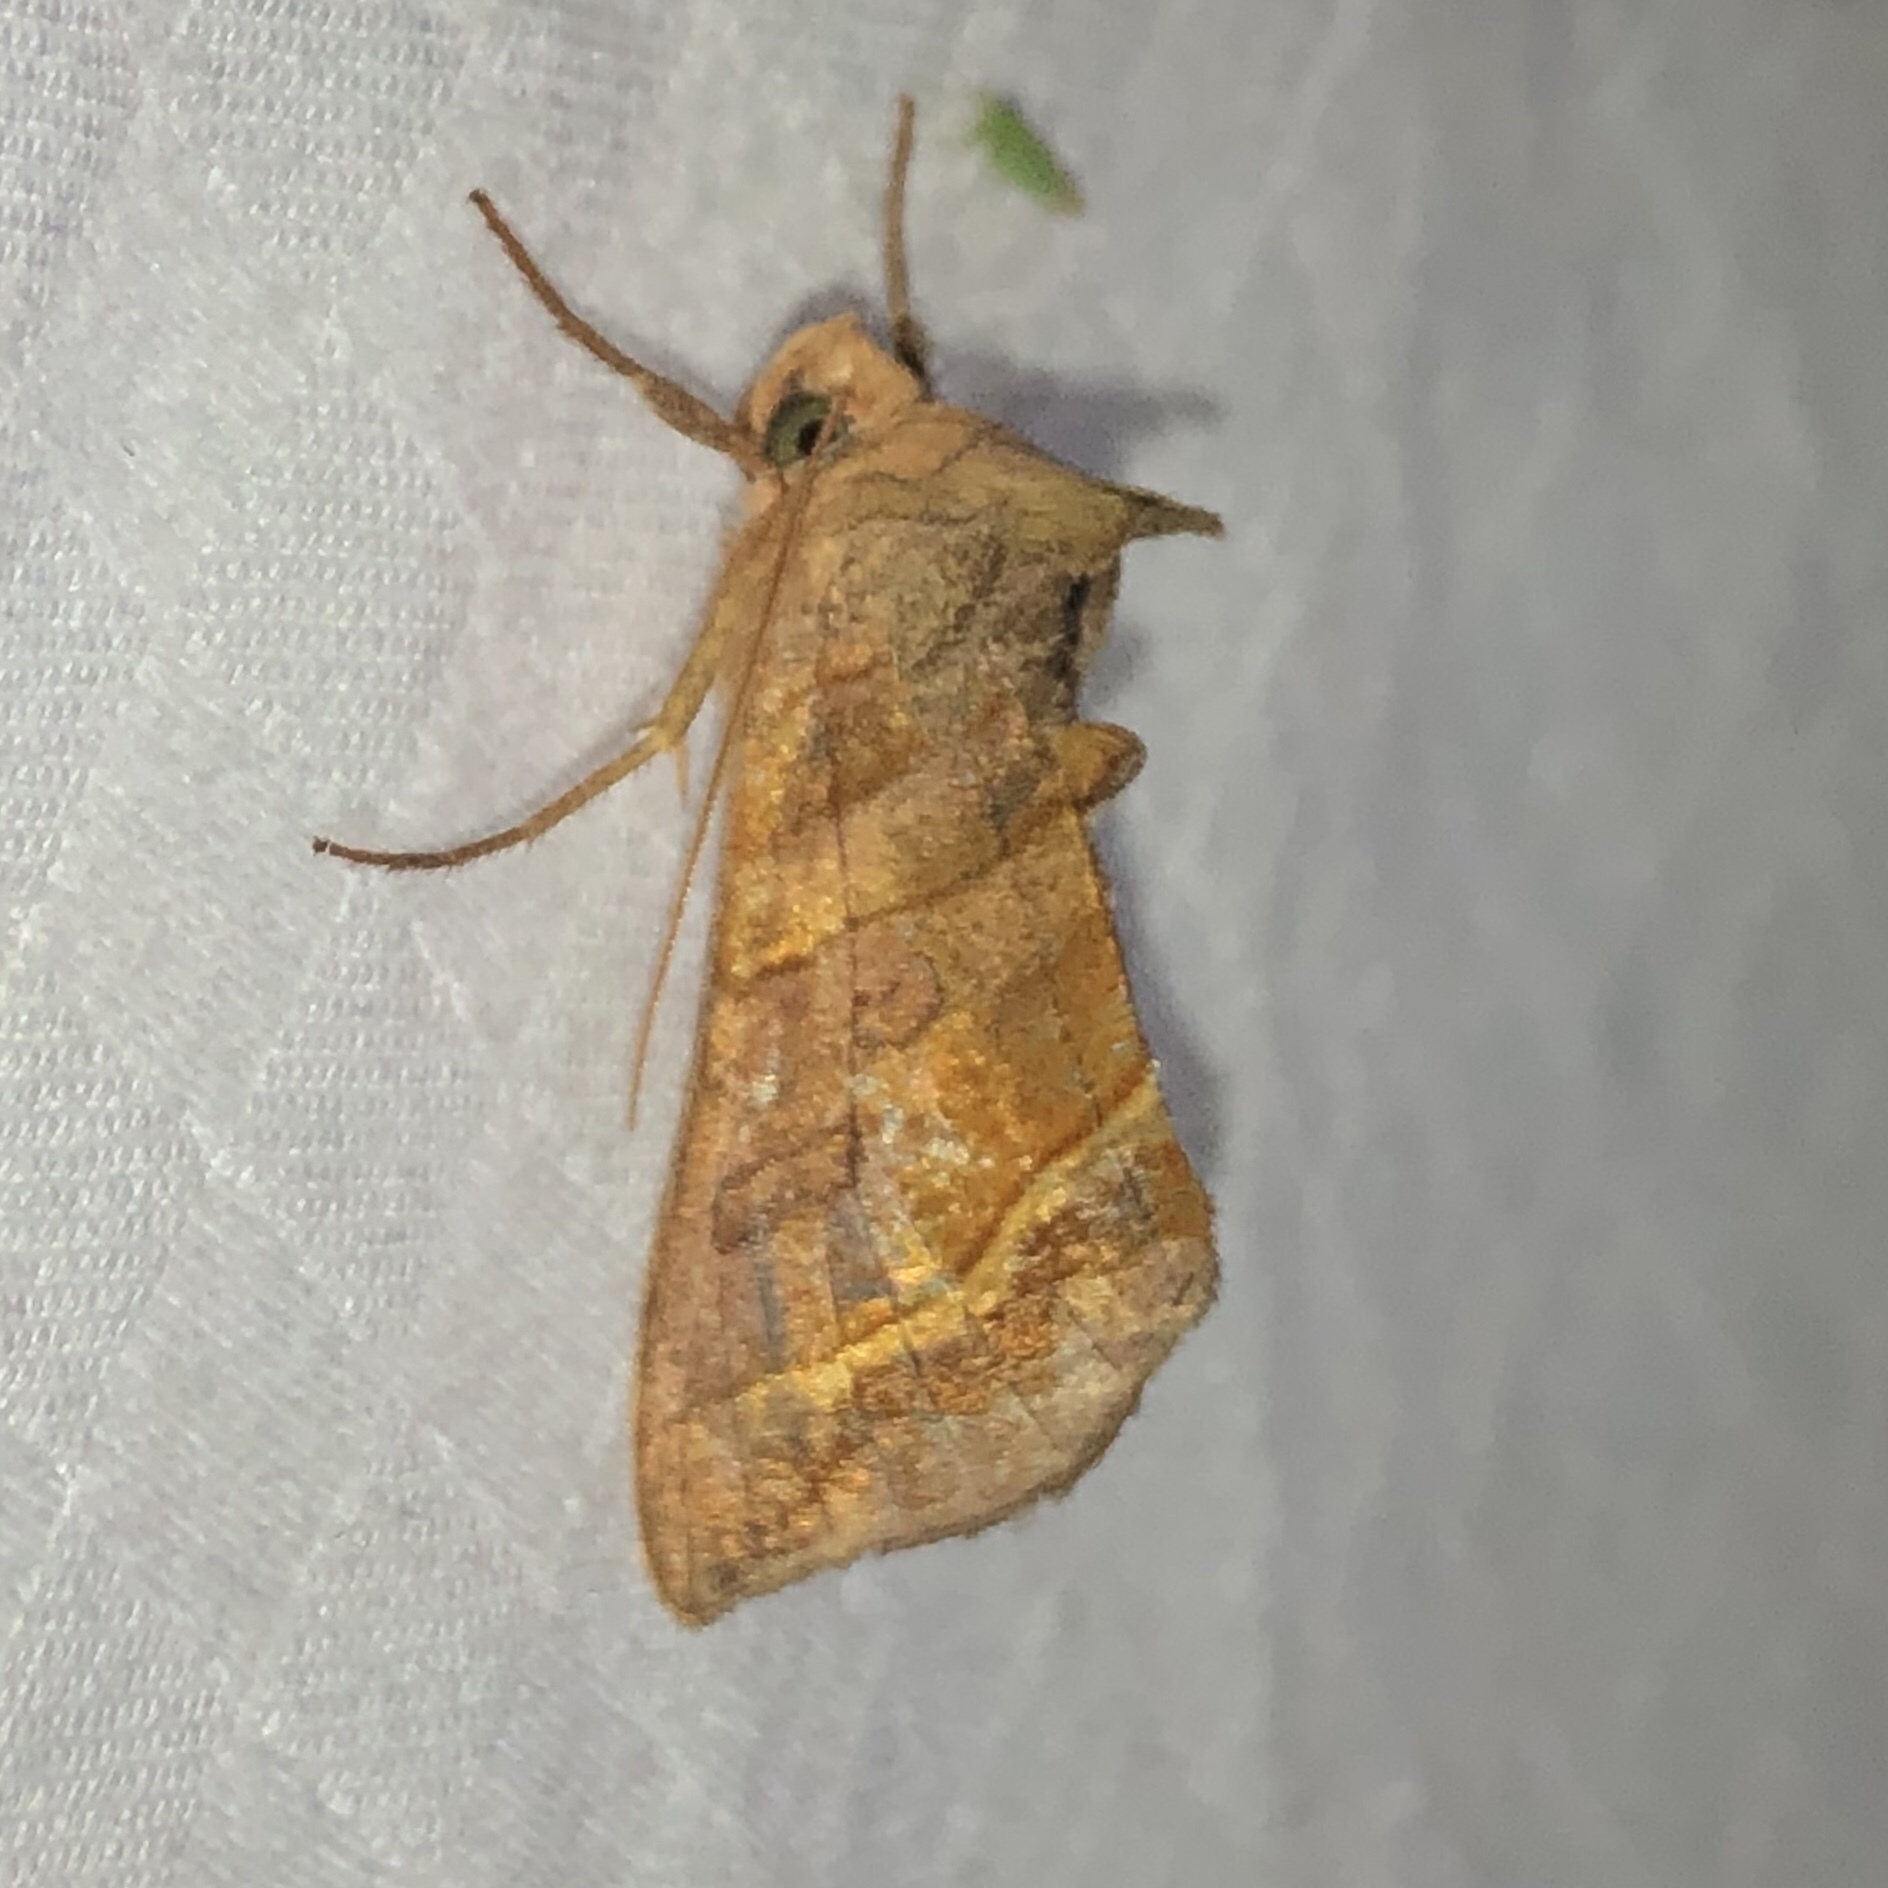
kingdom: Animalia
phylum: Arthropoda
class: Insecta
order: Lepidoptera
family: Noctuidae
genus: Diachrysia
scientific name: Diachrysia aereoides
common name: Dark-spotted looper moth
